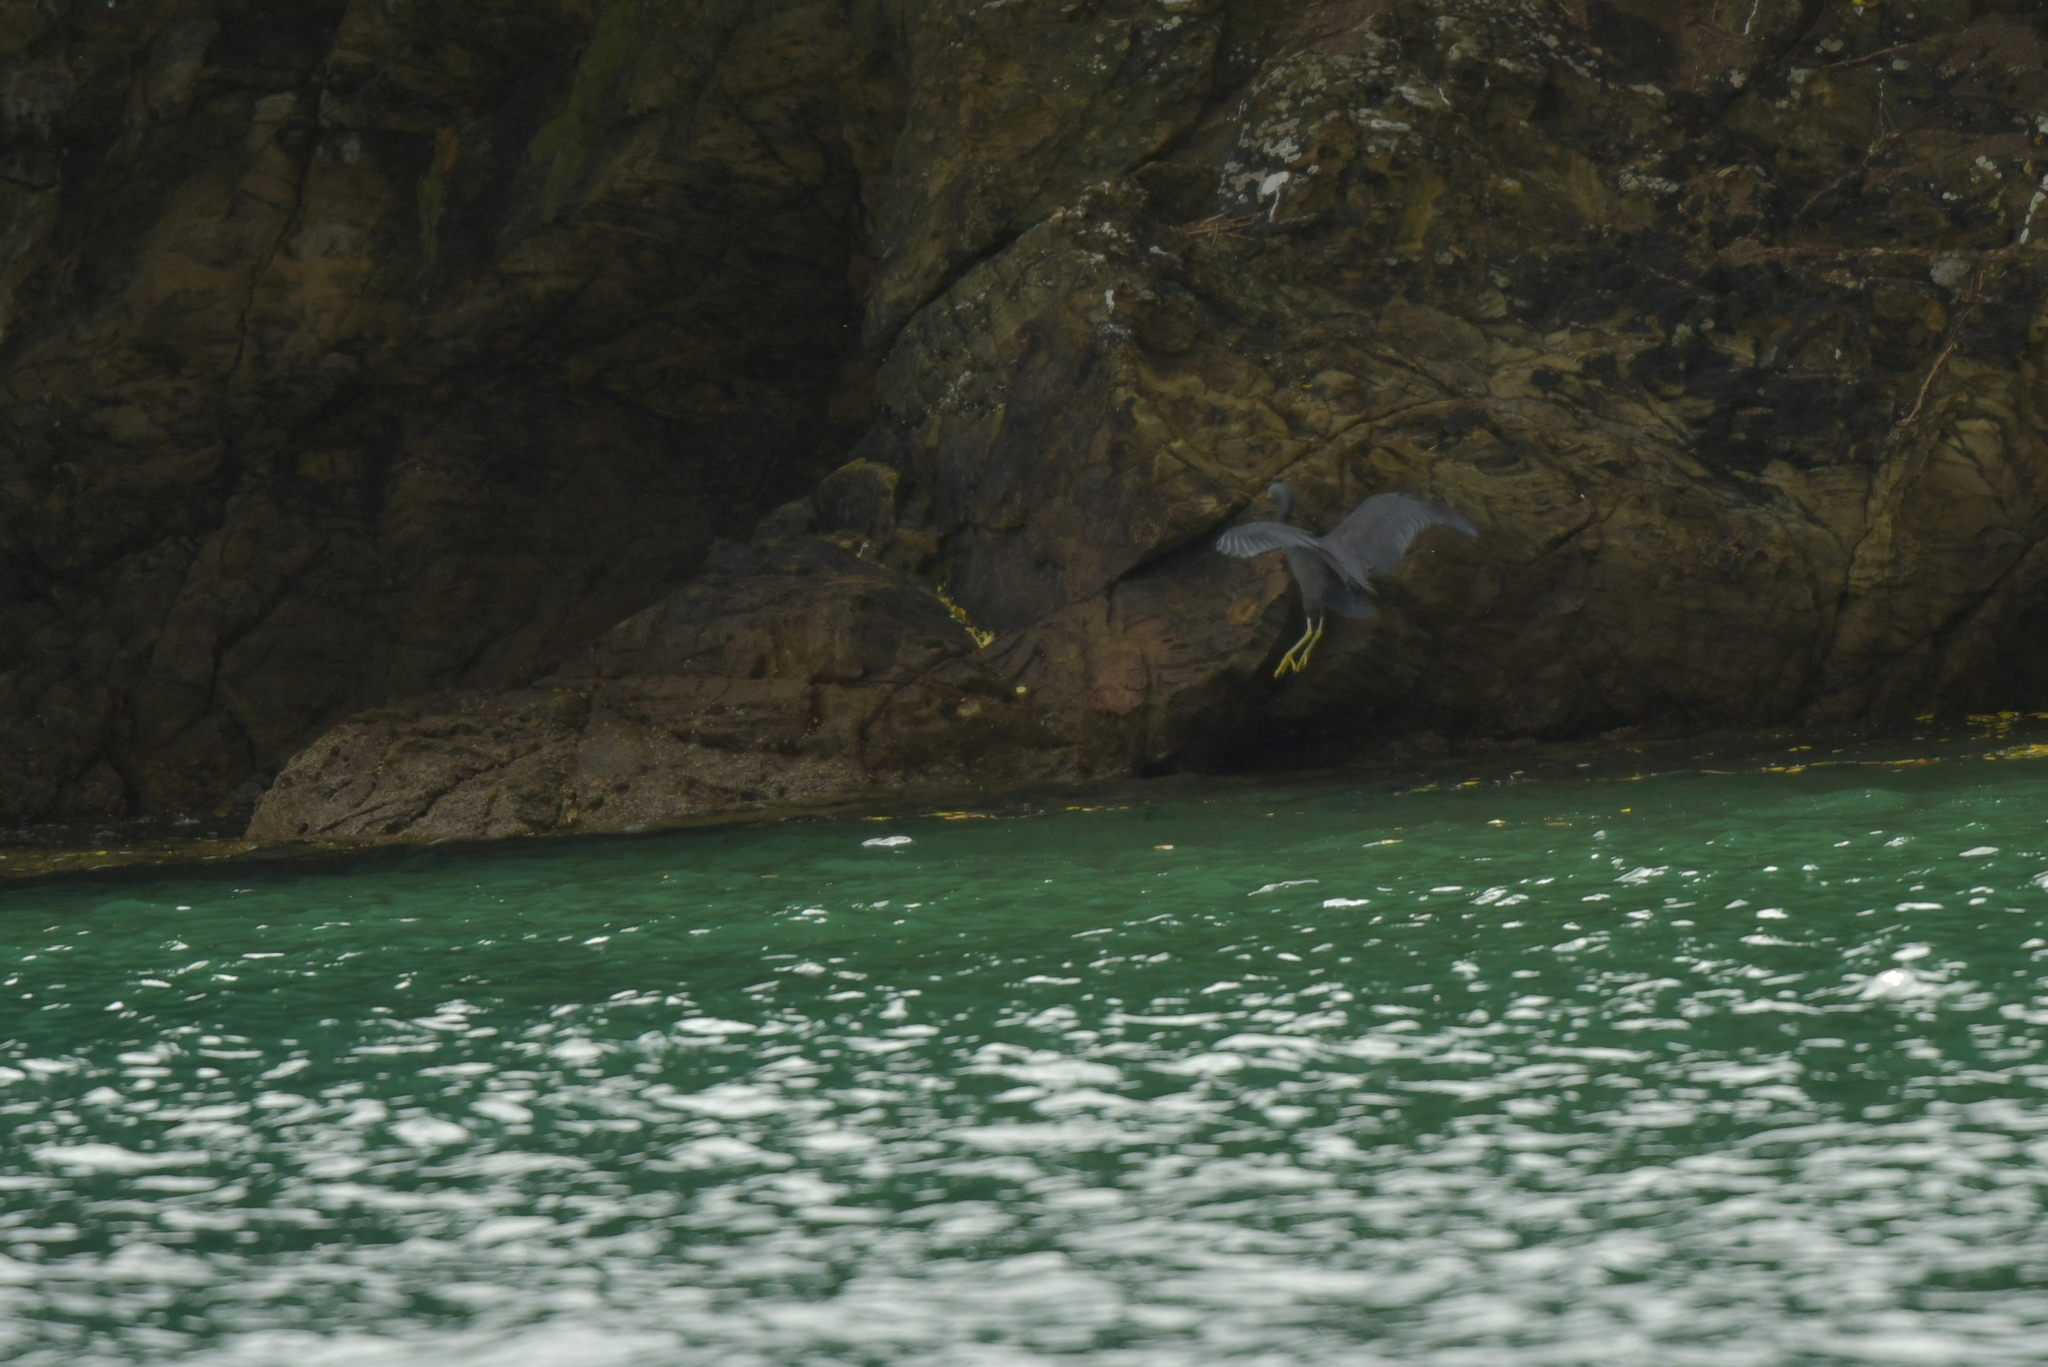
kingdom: Animalia
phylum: Chordata
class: Aves
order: Pelecaniformes
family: Ardeidae
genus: Egretta
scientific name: Egretta sacra
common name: Pacific reef heron
